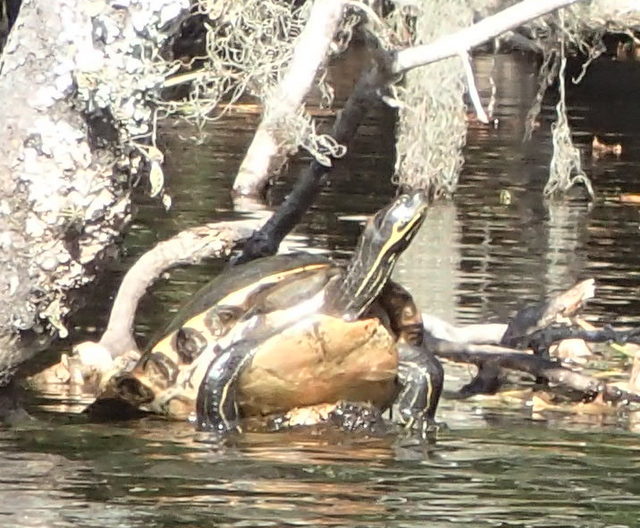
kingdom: Animalia
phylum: Chordata
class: Testudines
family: Emydidae
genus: Pseudemys
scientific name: Pseudemys concinna
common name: Eastern river cooter
